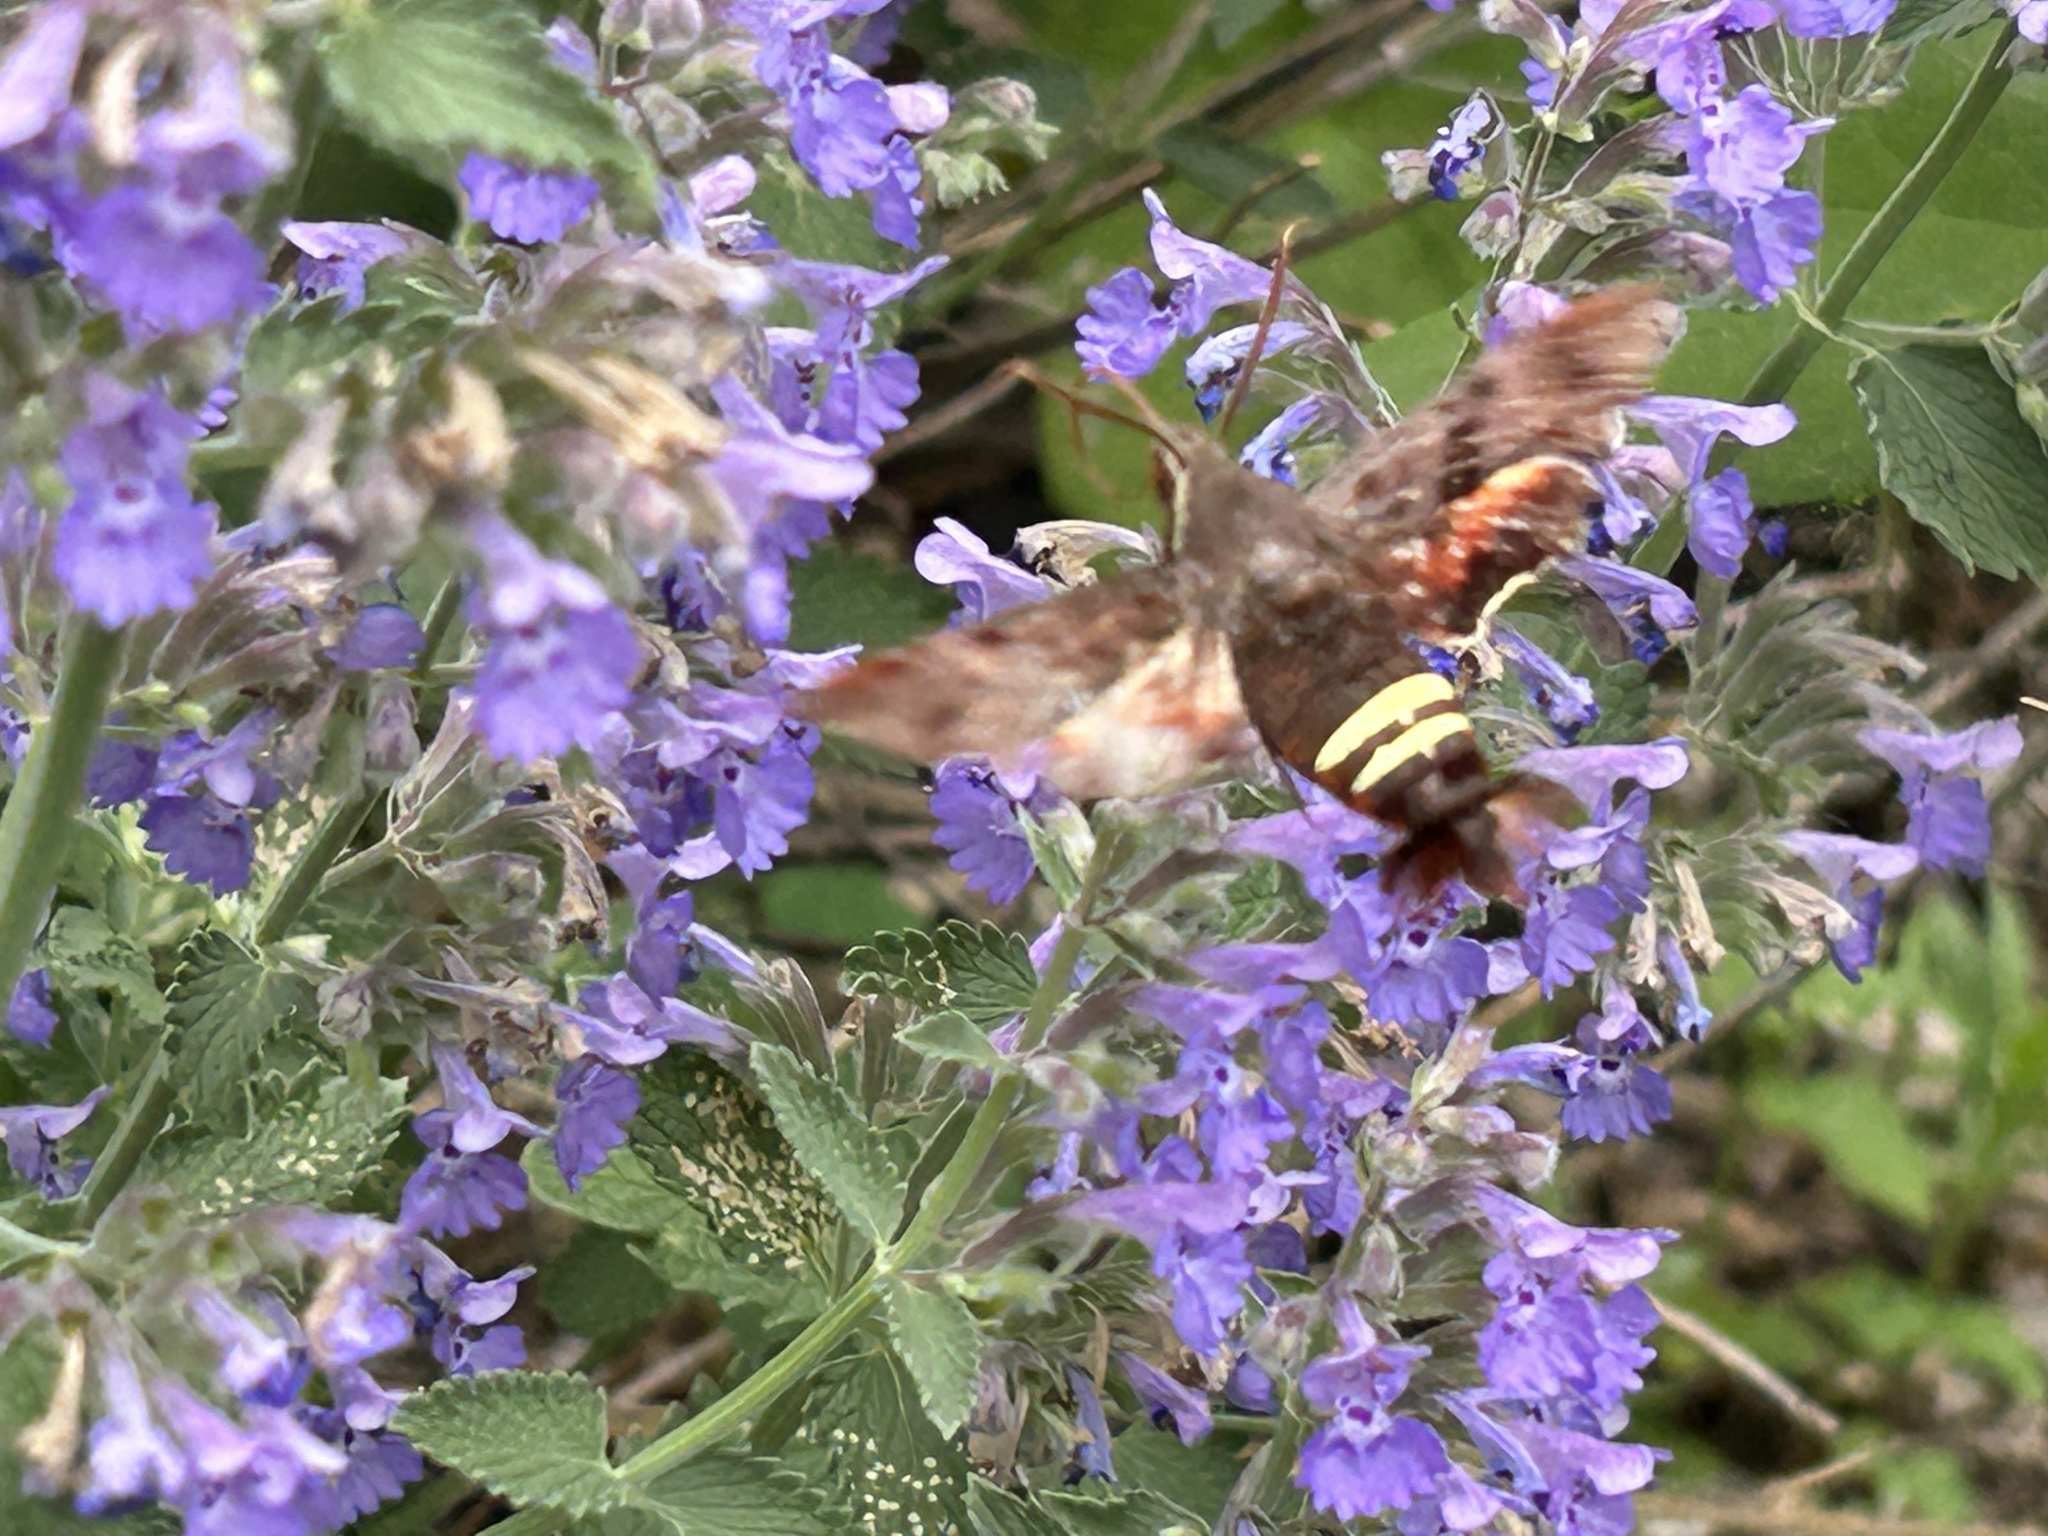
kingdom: Animalia
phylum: Arthropoda
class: Insecta
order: Lepidoptera
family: Sphingidae
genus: Amphion
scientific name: Amphion floridensis
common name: Nessus sphinx
